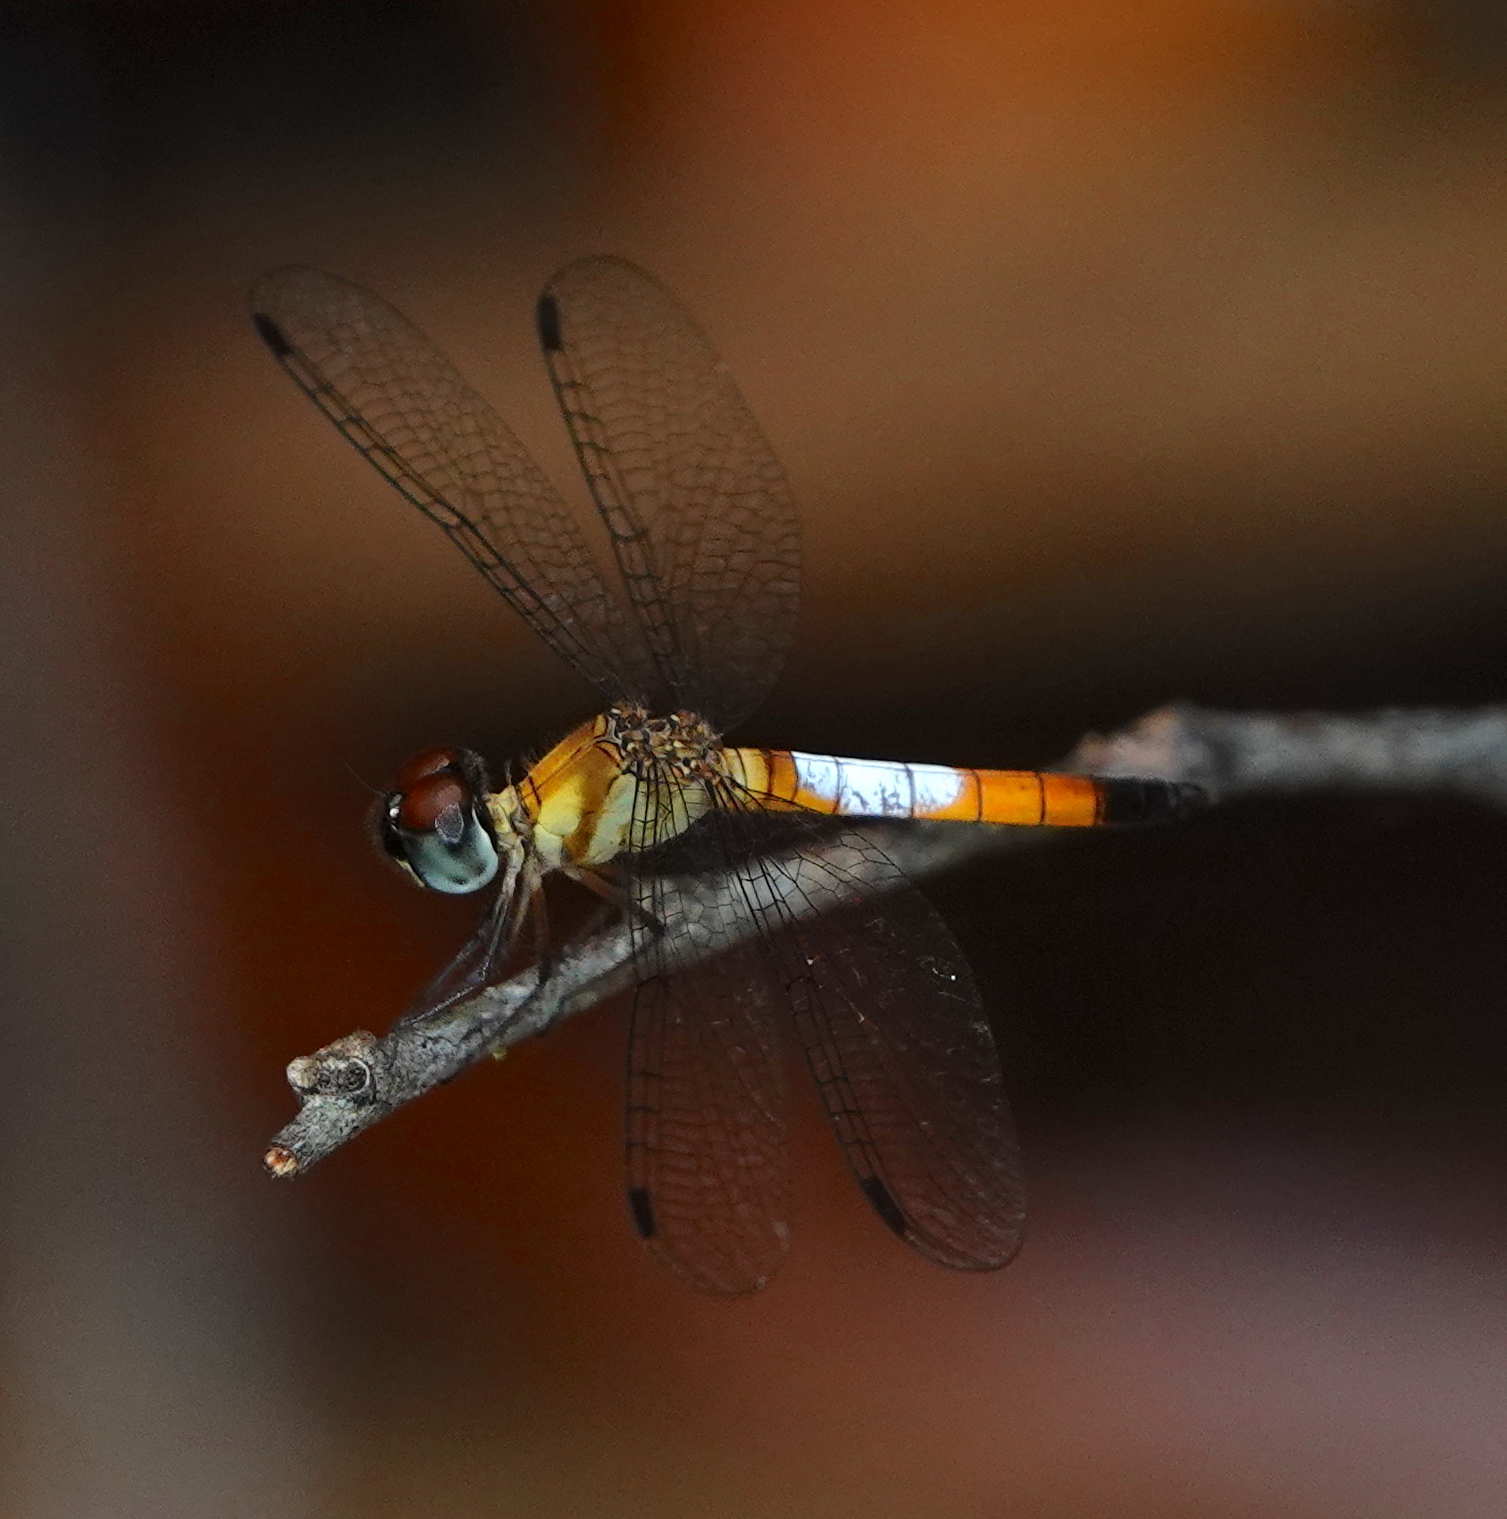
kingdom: Animalia
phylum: Arthropoda
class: Insecta
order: Odonata
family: Libellulidae
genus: Brachygonia
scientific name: Brachygonia oculata
